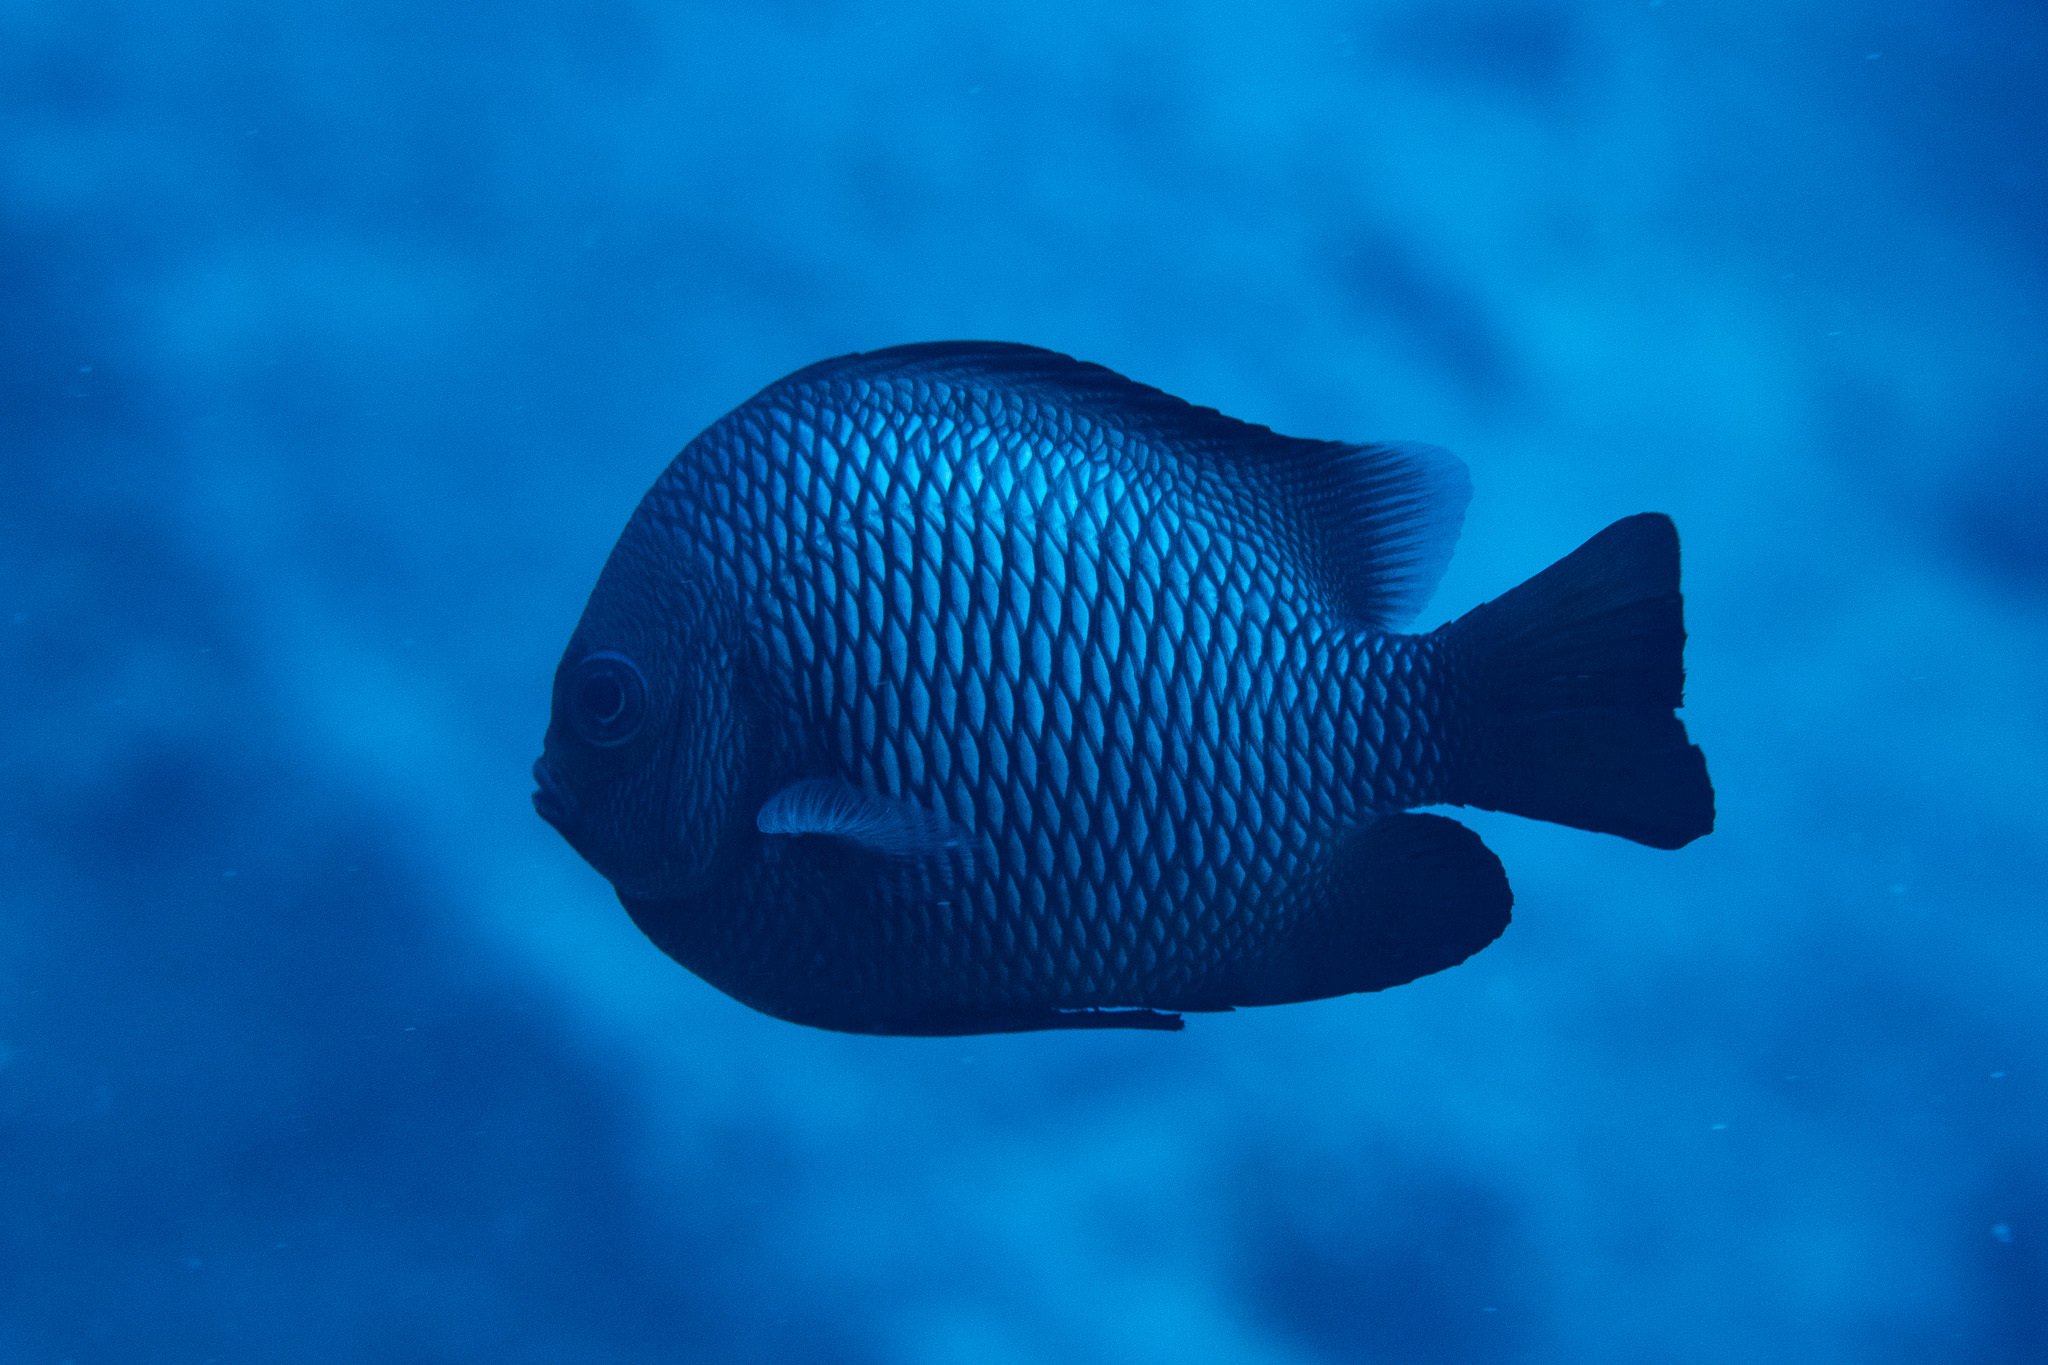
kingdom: Animalia
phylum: Chordata
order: Perciformes
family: Pomacentridae
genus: Dascyllus
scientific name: Dascyllus albisella
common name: Hawaiian dascyllus
